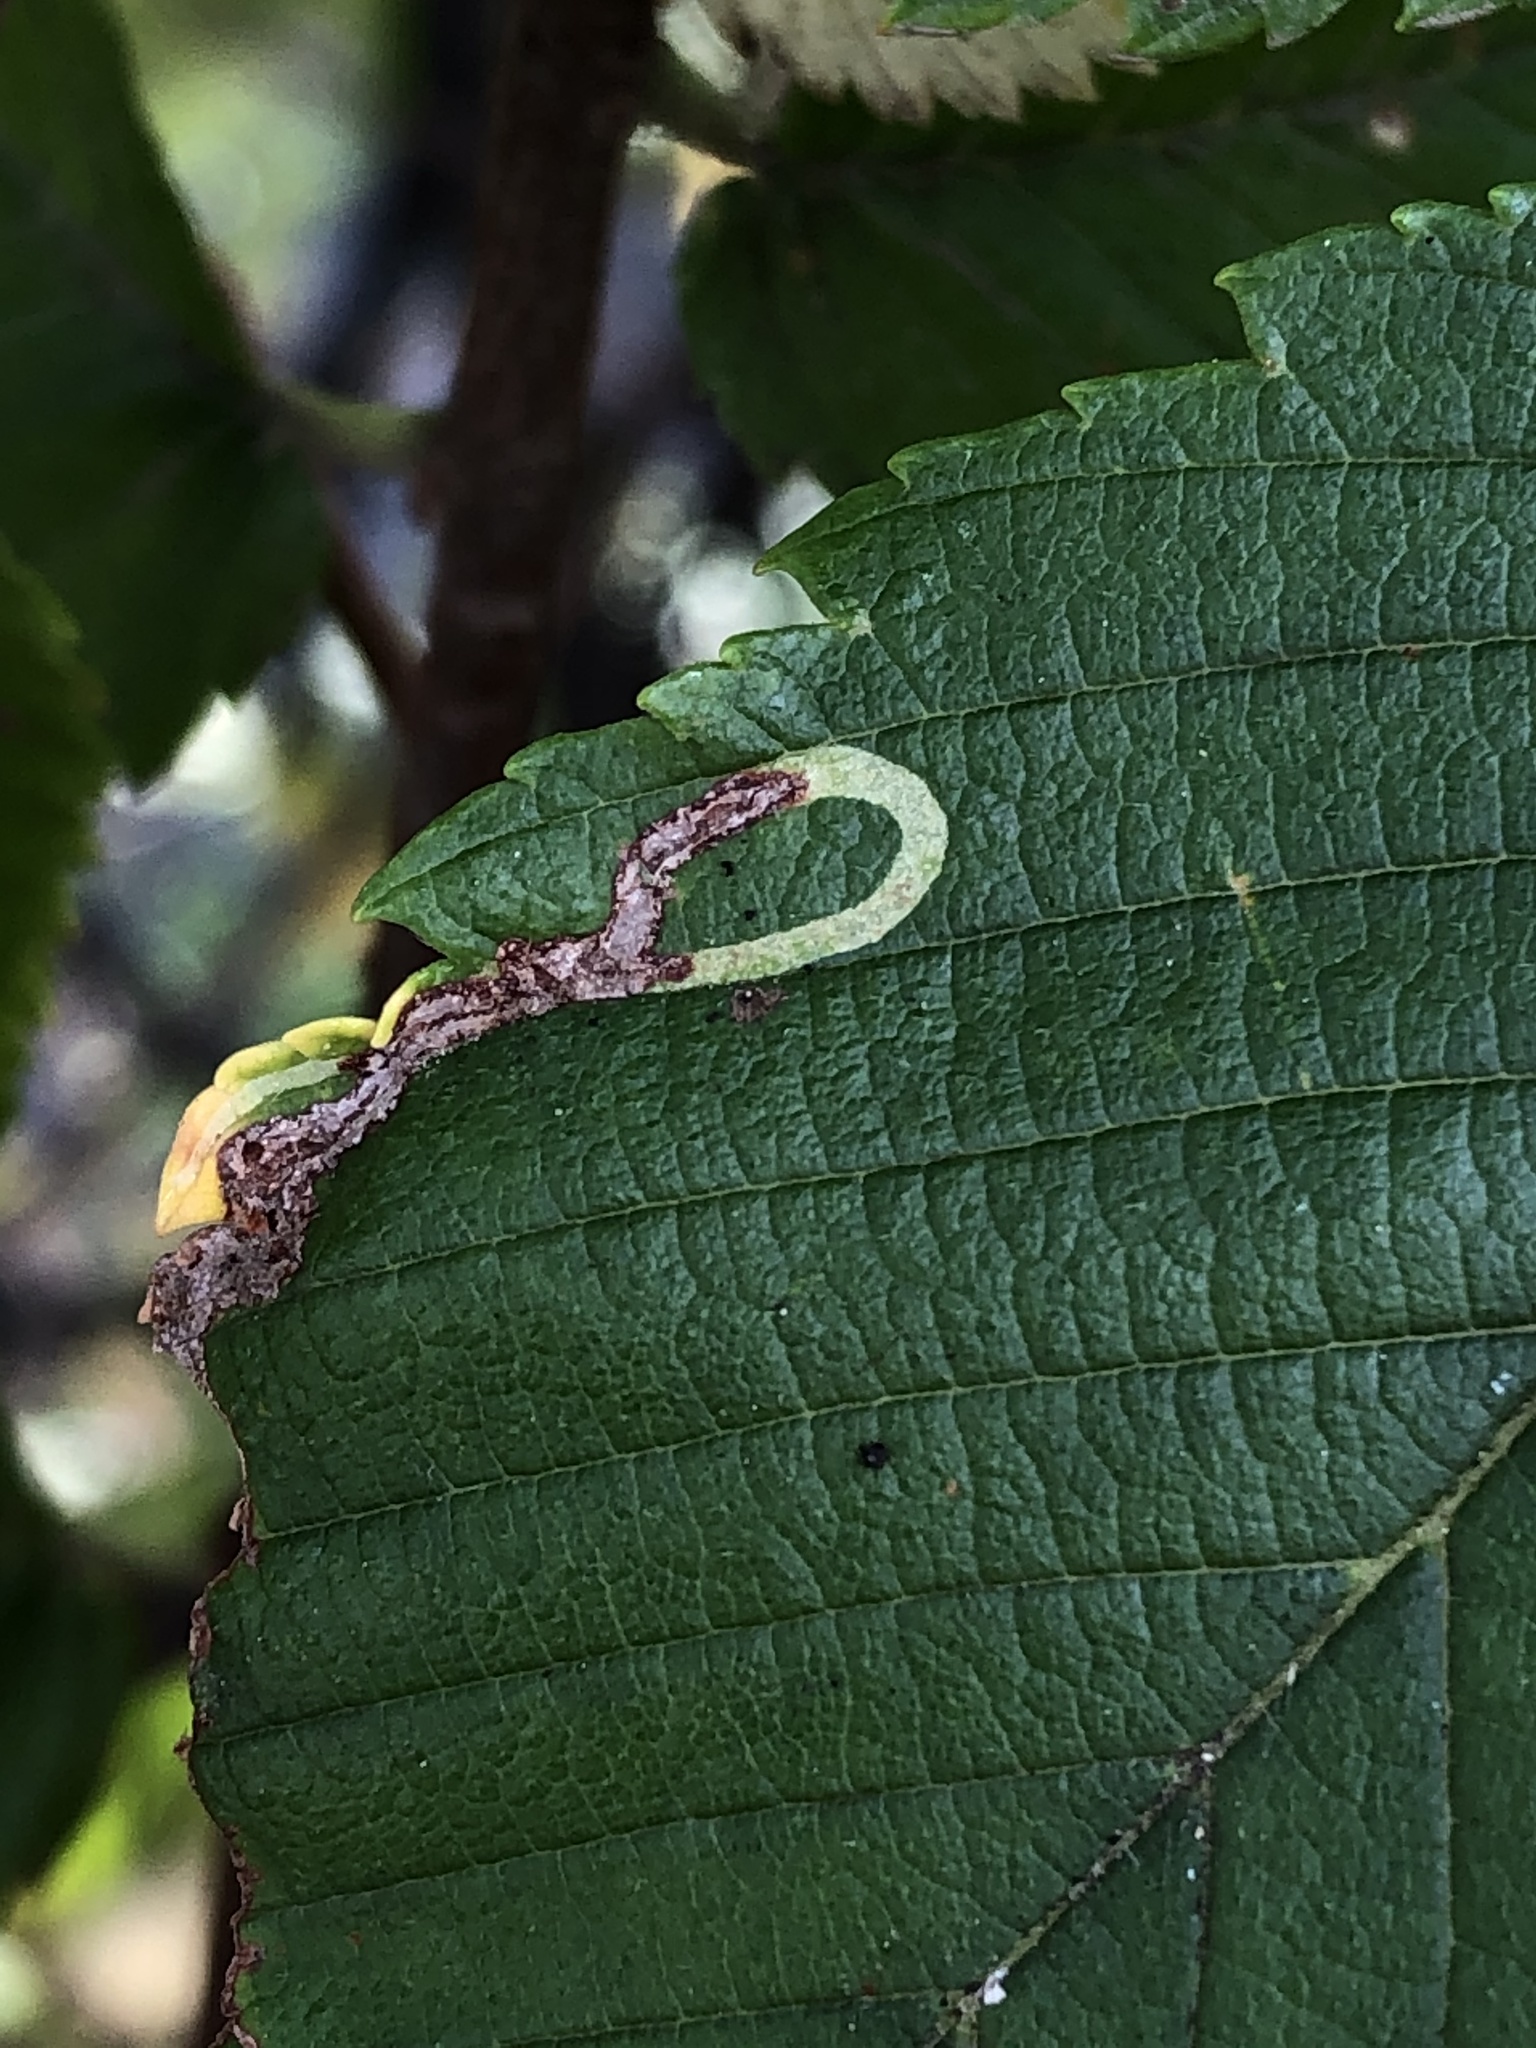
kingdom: Animalia
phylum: Arthropoda
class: Insecta
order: Diptera
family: Agromyzidae
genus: Agromyza
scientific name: Agromyza aristata
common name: Elm agromyzid leafminer
